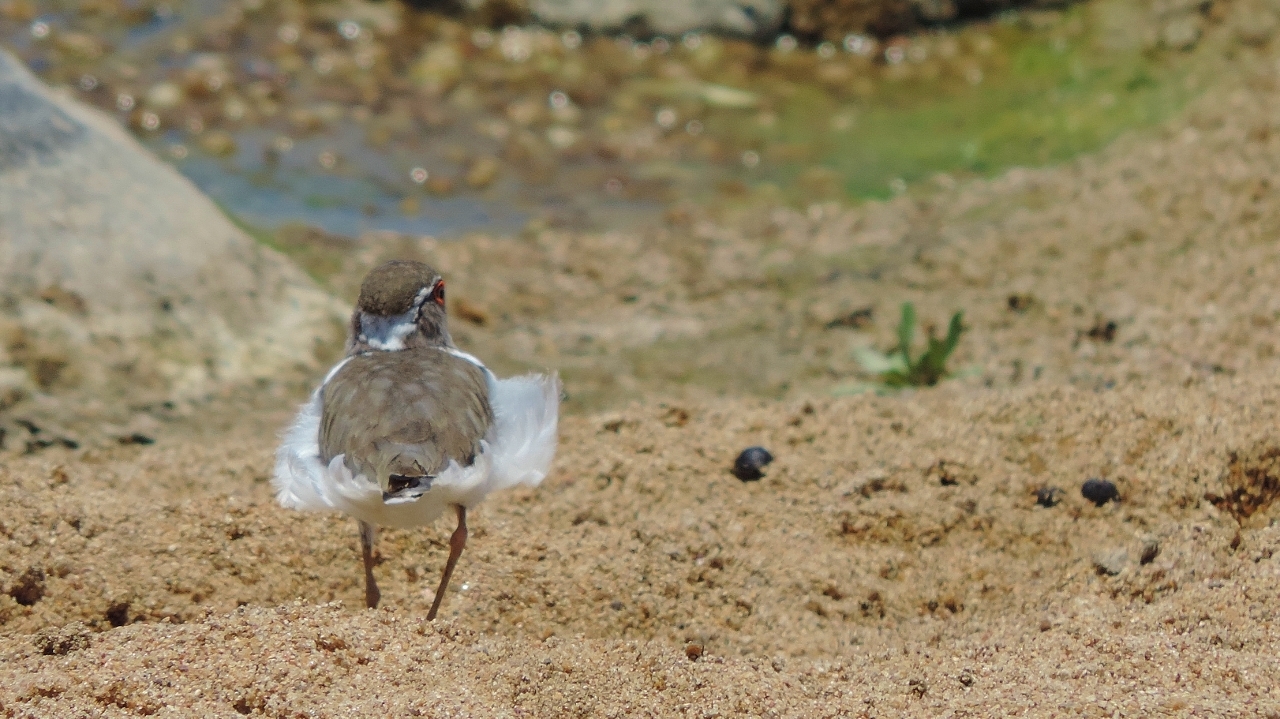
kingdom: Animalia
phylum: Chordata
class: Aves
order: Charadriiformes
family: Charadriidae
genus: Charadrius
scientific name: Charadrius tricollaris
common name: Three-banded plover
